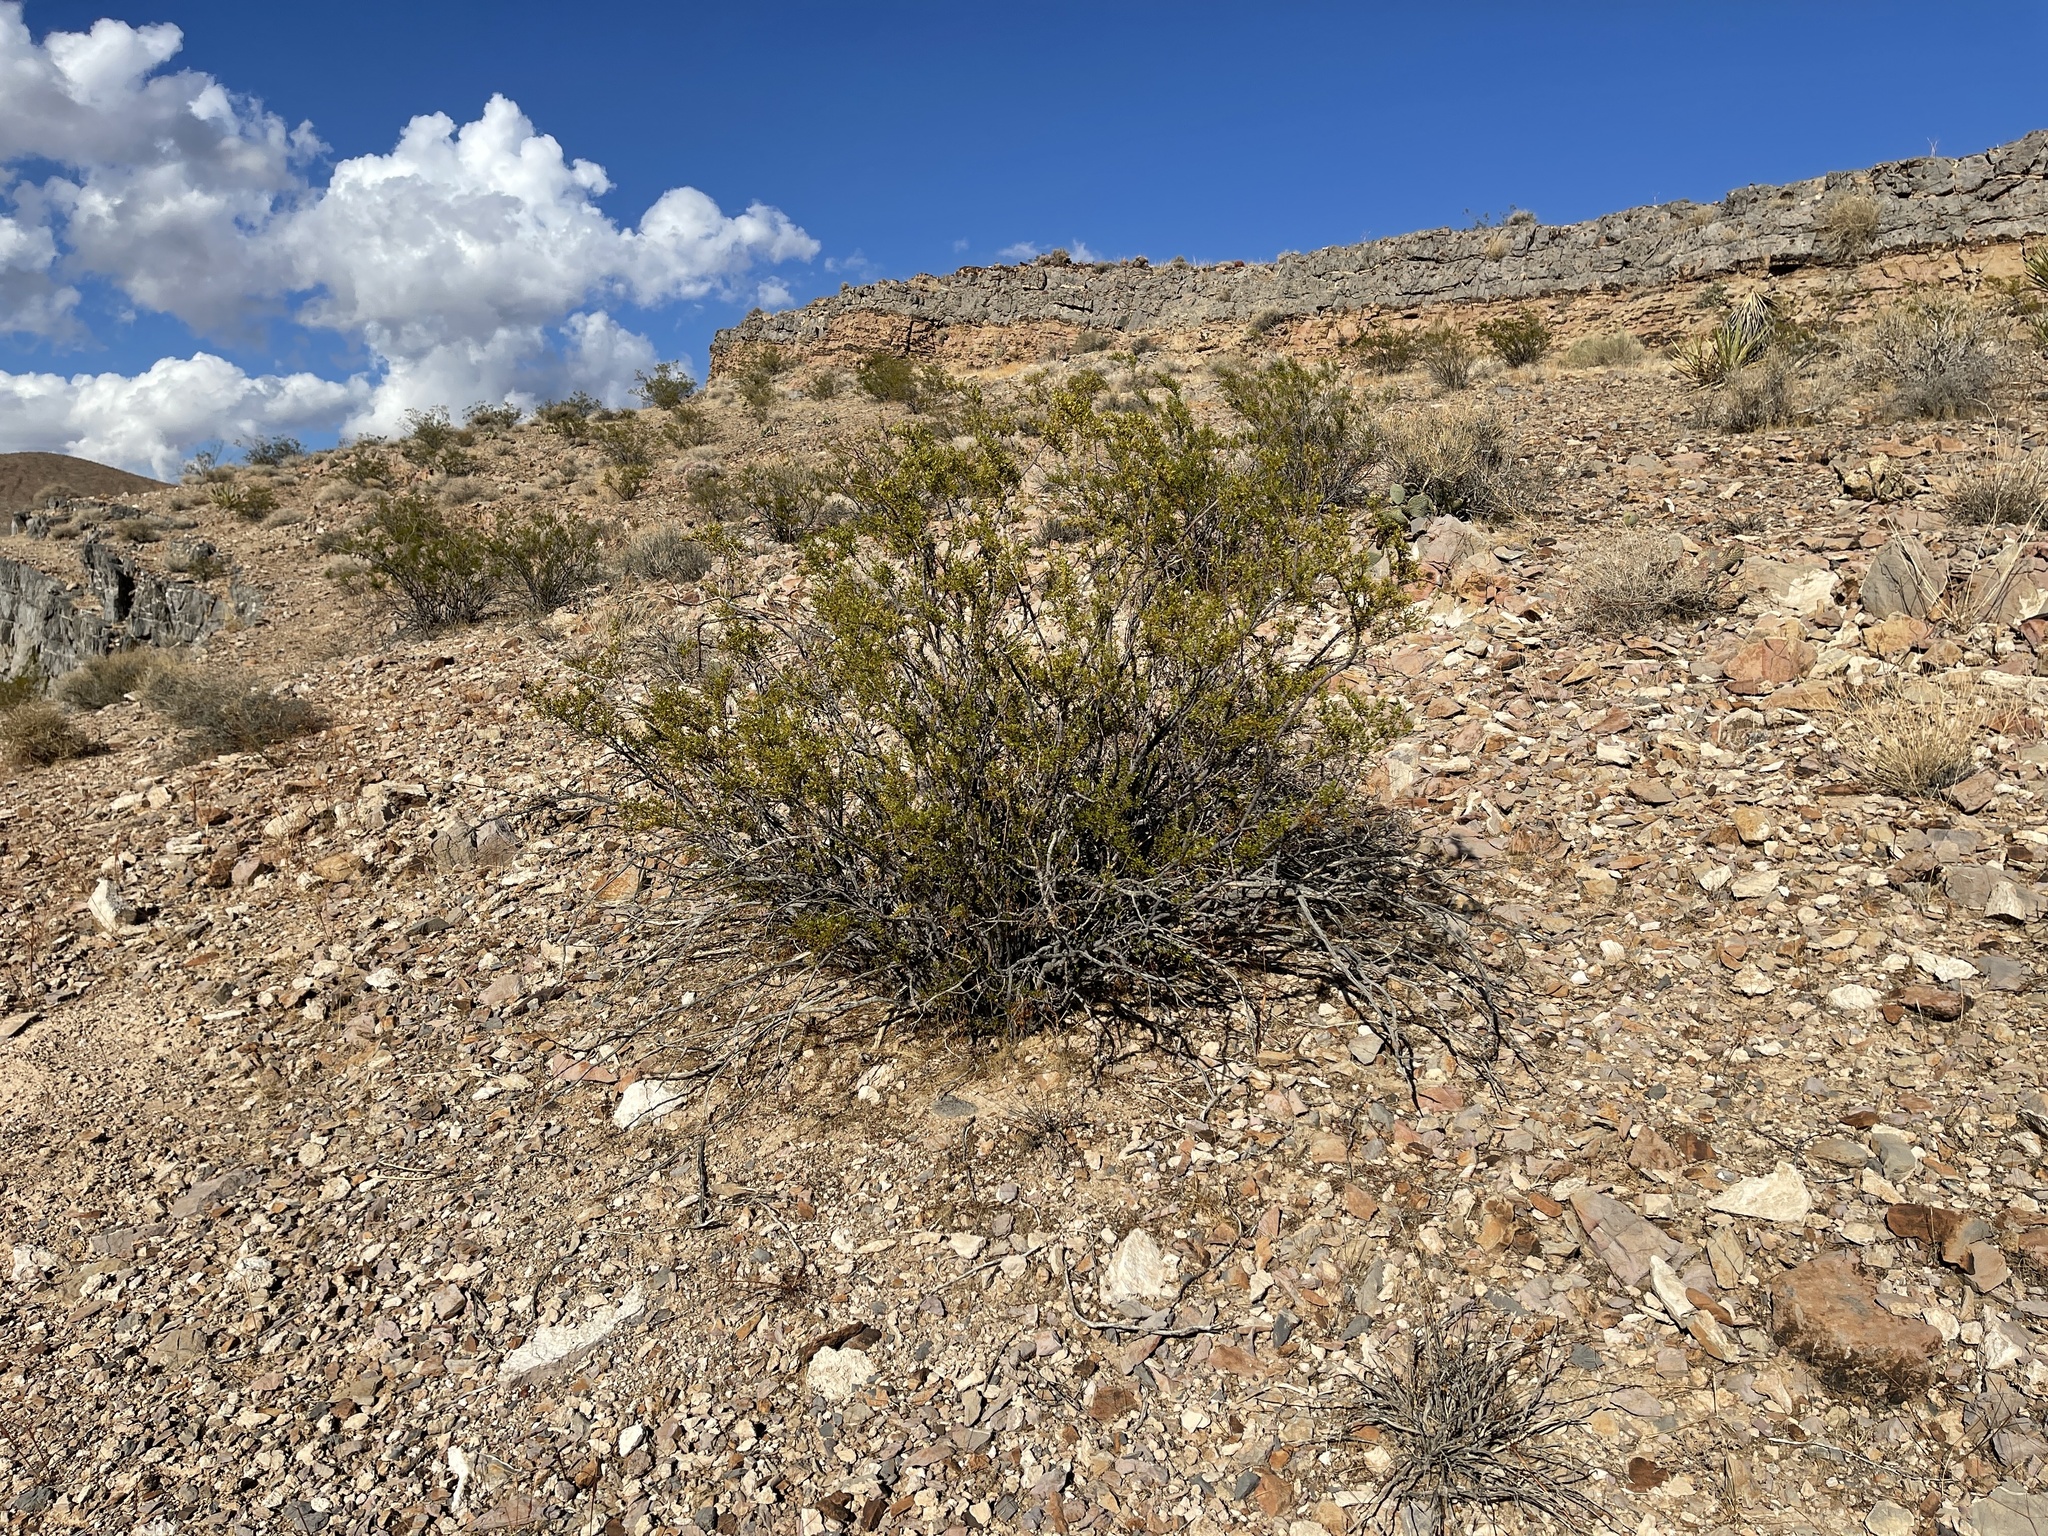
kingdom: Plantae
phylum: Tracheophyta
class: Magnoliopsida
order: Zygophyllales
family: Zygophyllaceae
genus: Larrea
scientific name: Larrea tridentata
